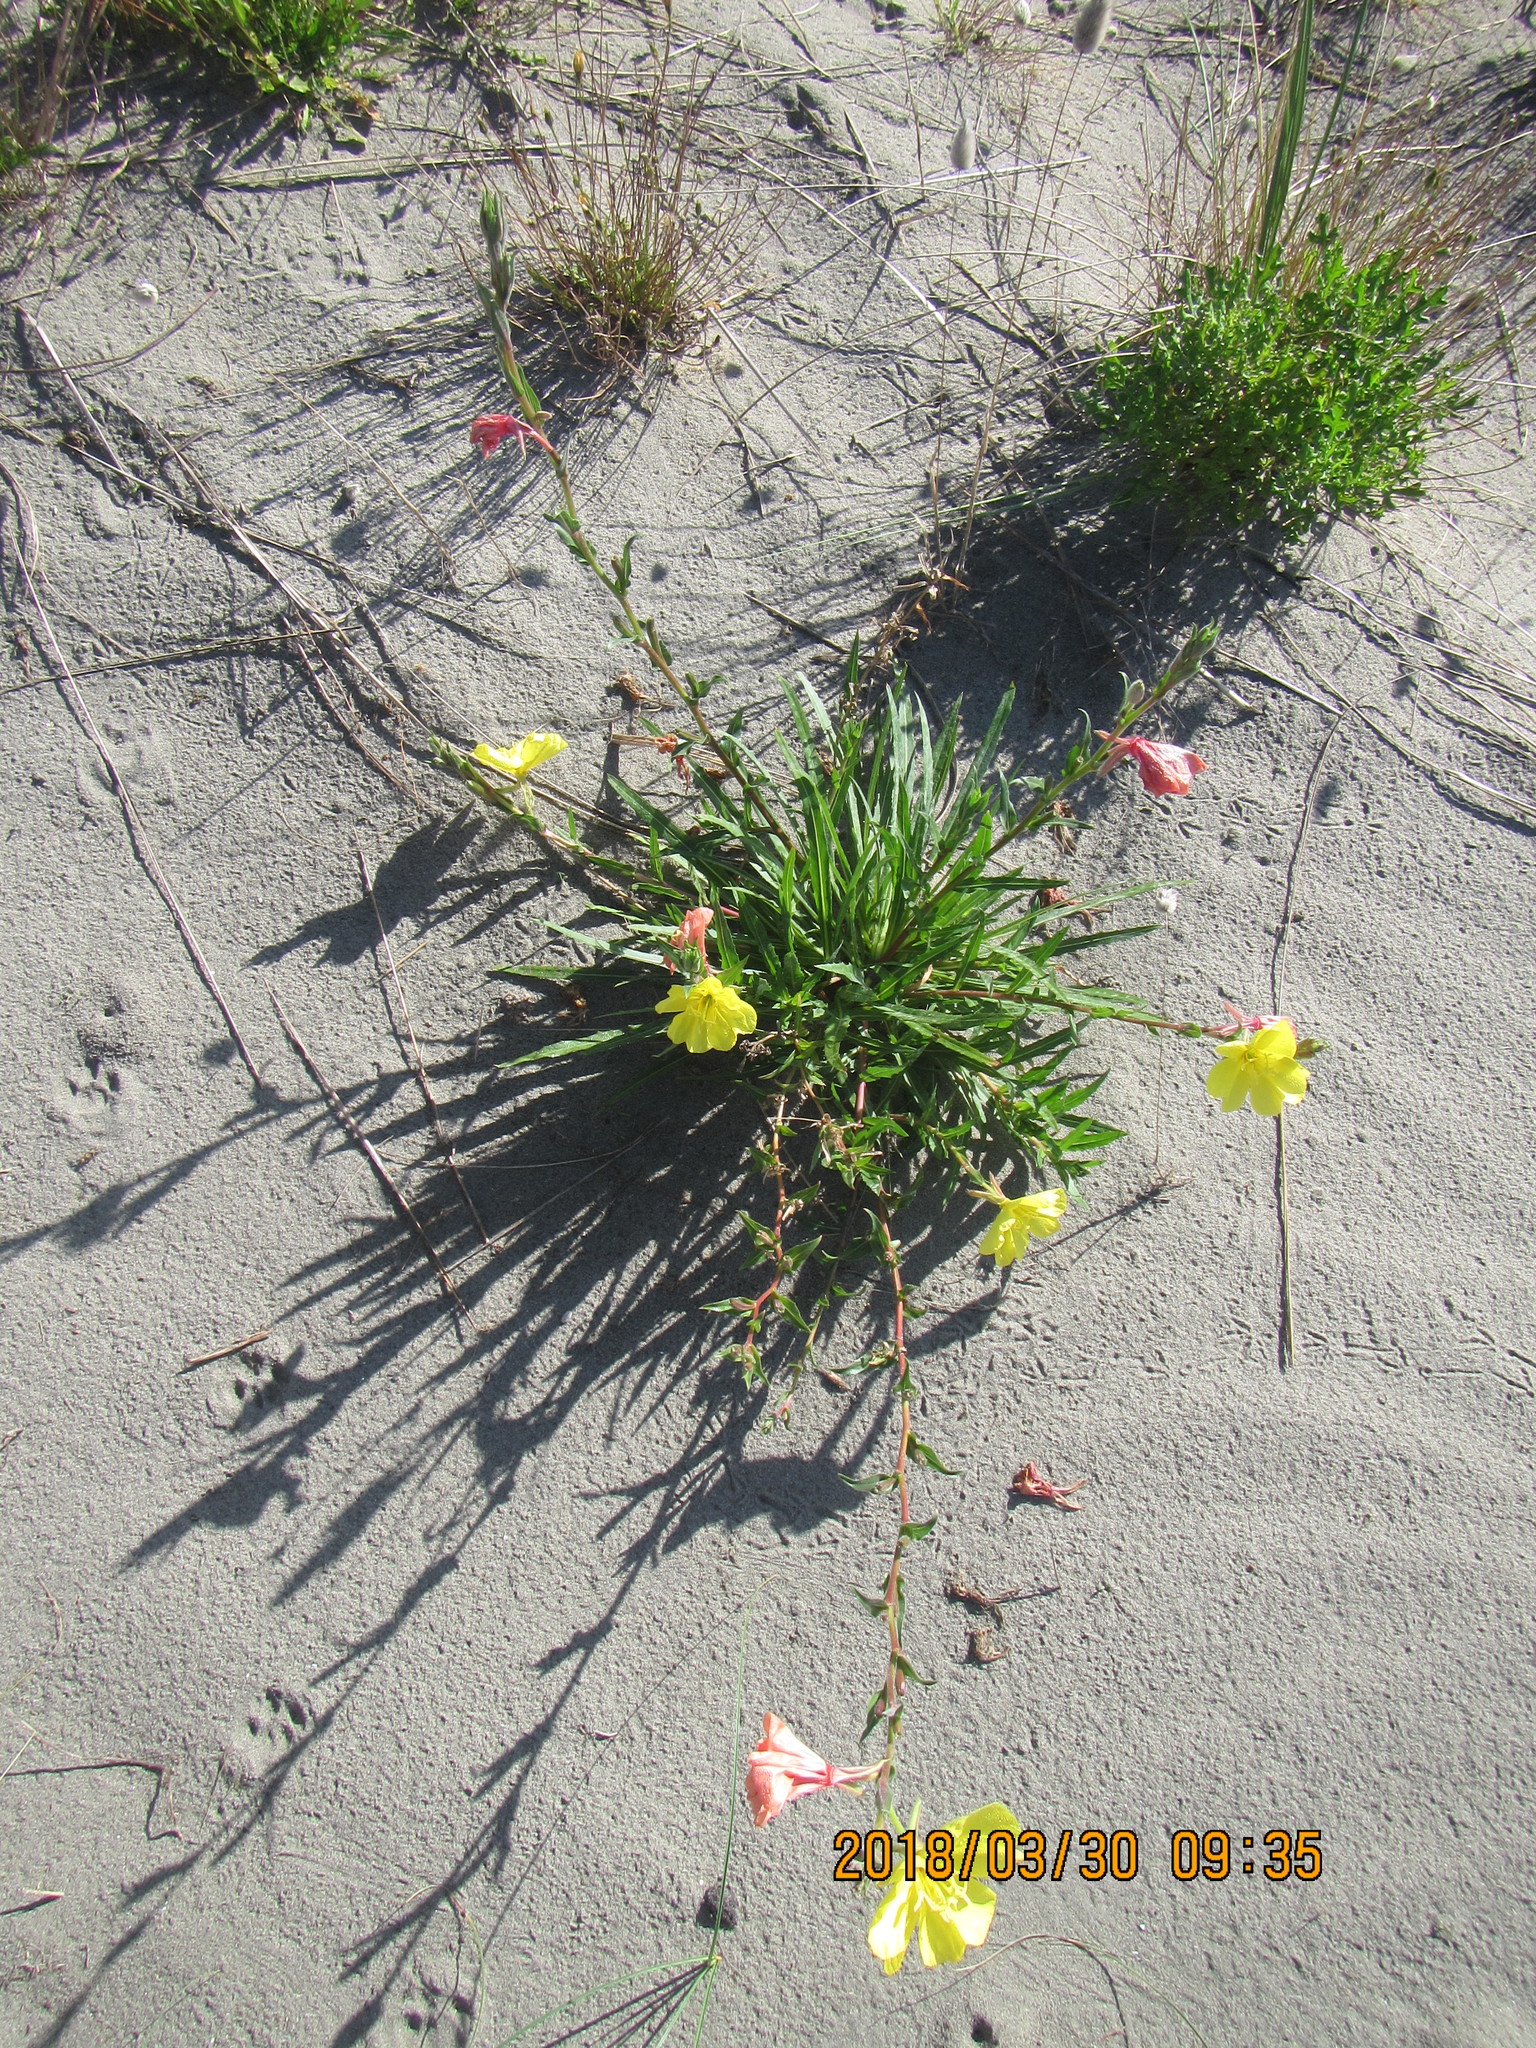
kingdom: Plantae
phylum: Tracheophyta
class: Magnoliopsida
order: Myrtales
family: Onagraceae
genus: Oenothera
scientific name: Oenothera drummondii
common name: Beach evening-primrose
